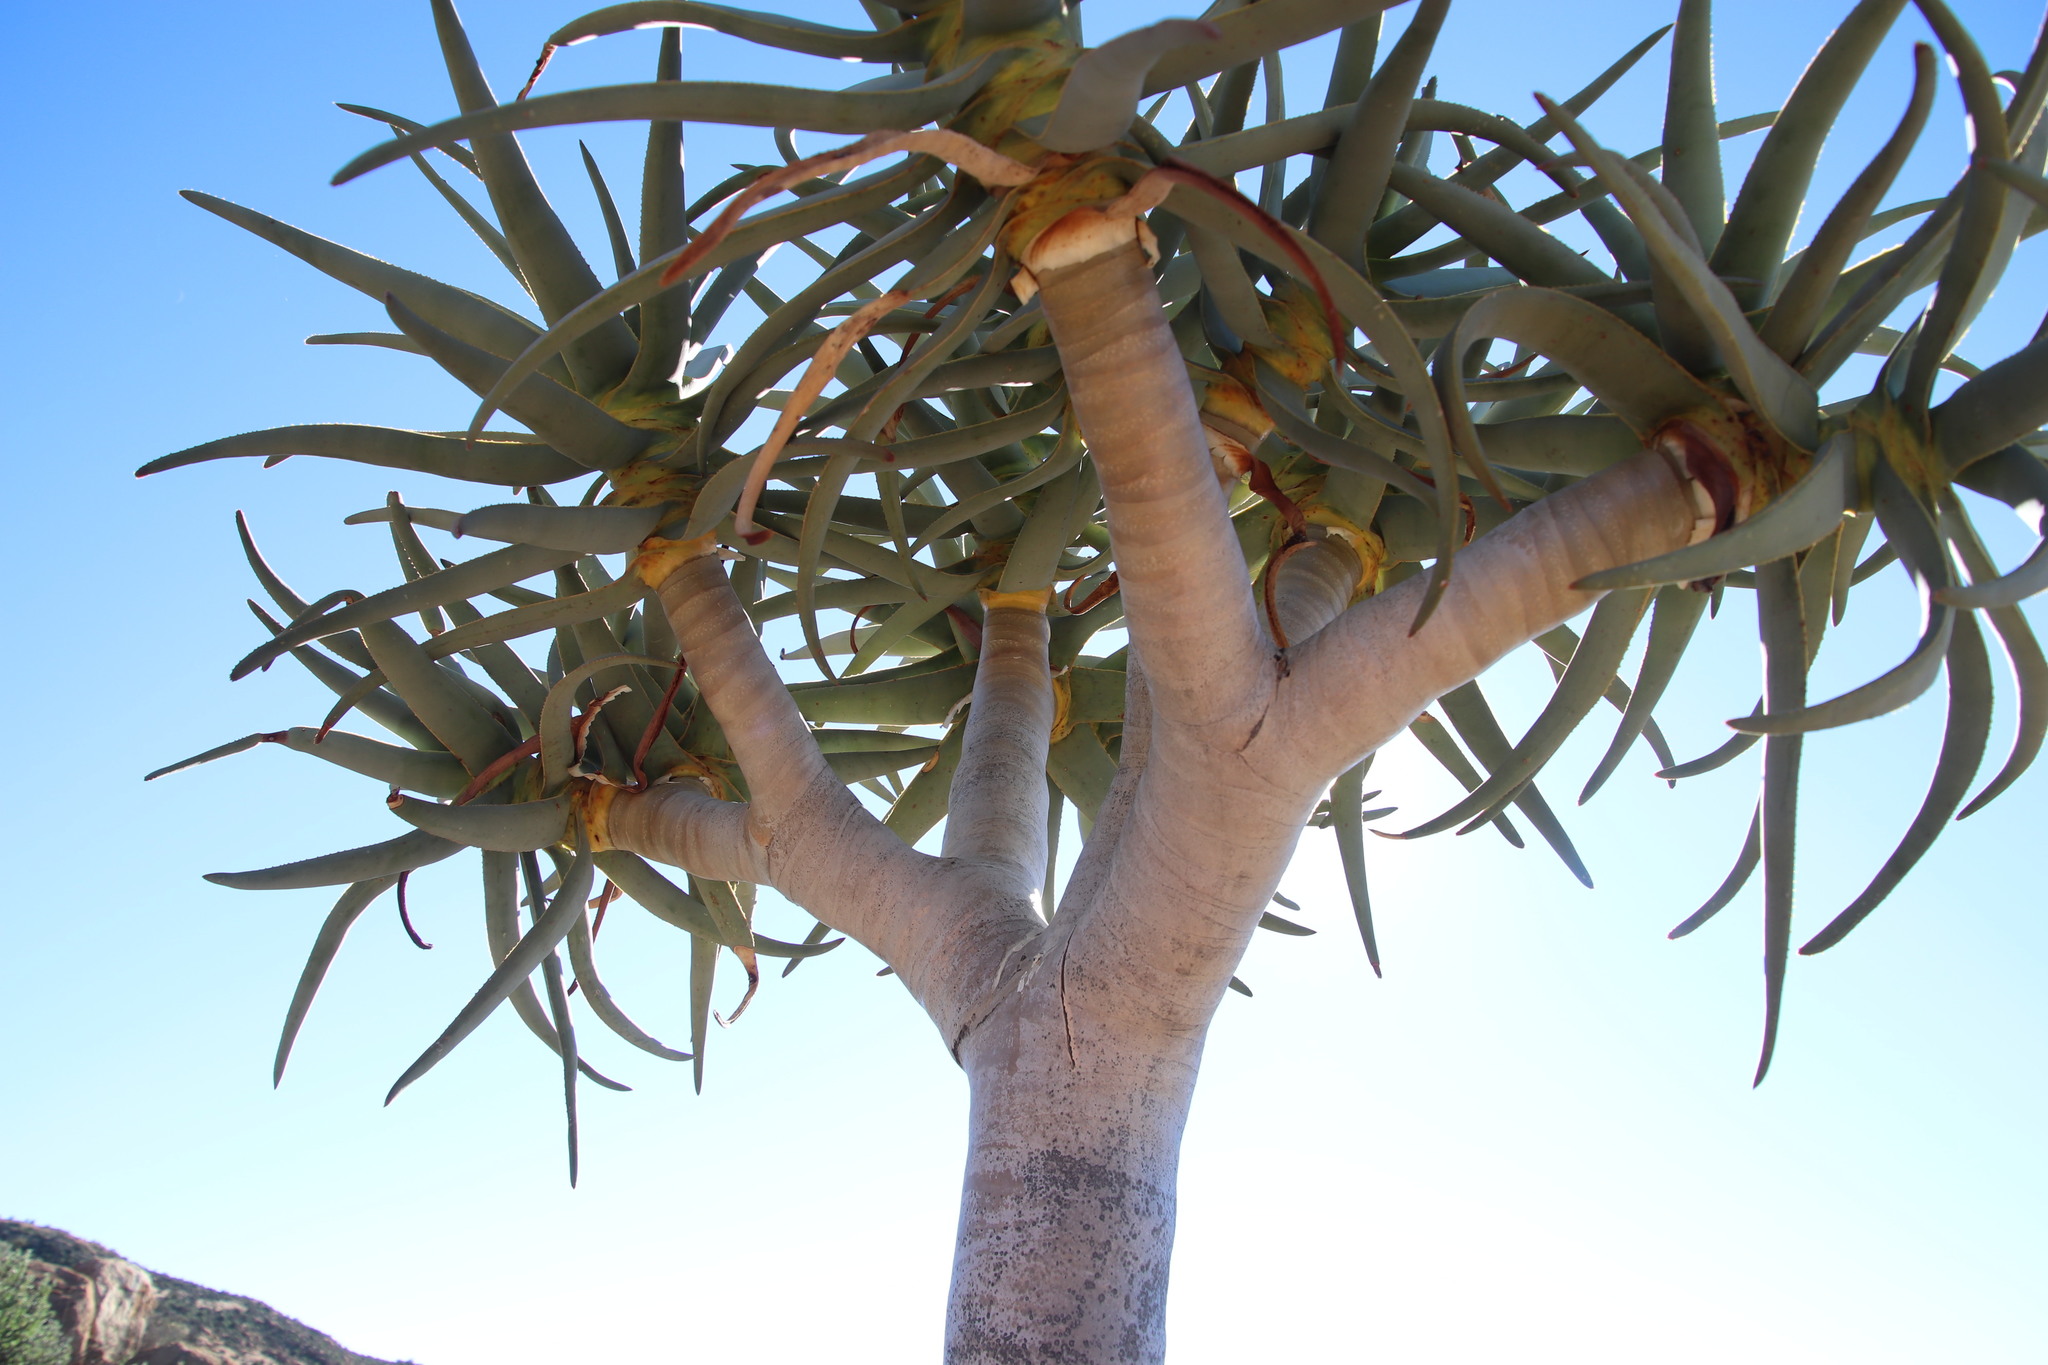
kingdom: Plantae
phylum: Tracheophyta
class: Liliopsida
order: Asparagales
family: Asphodelaceae
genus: Aloidendron
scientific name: Aloidendron dichotomum
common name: Quiver tree
